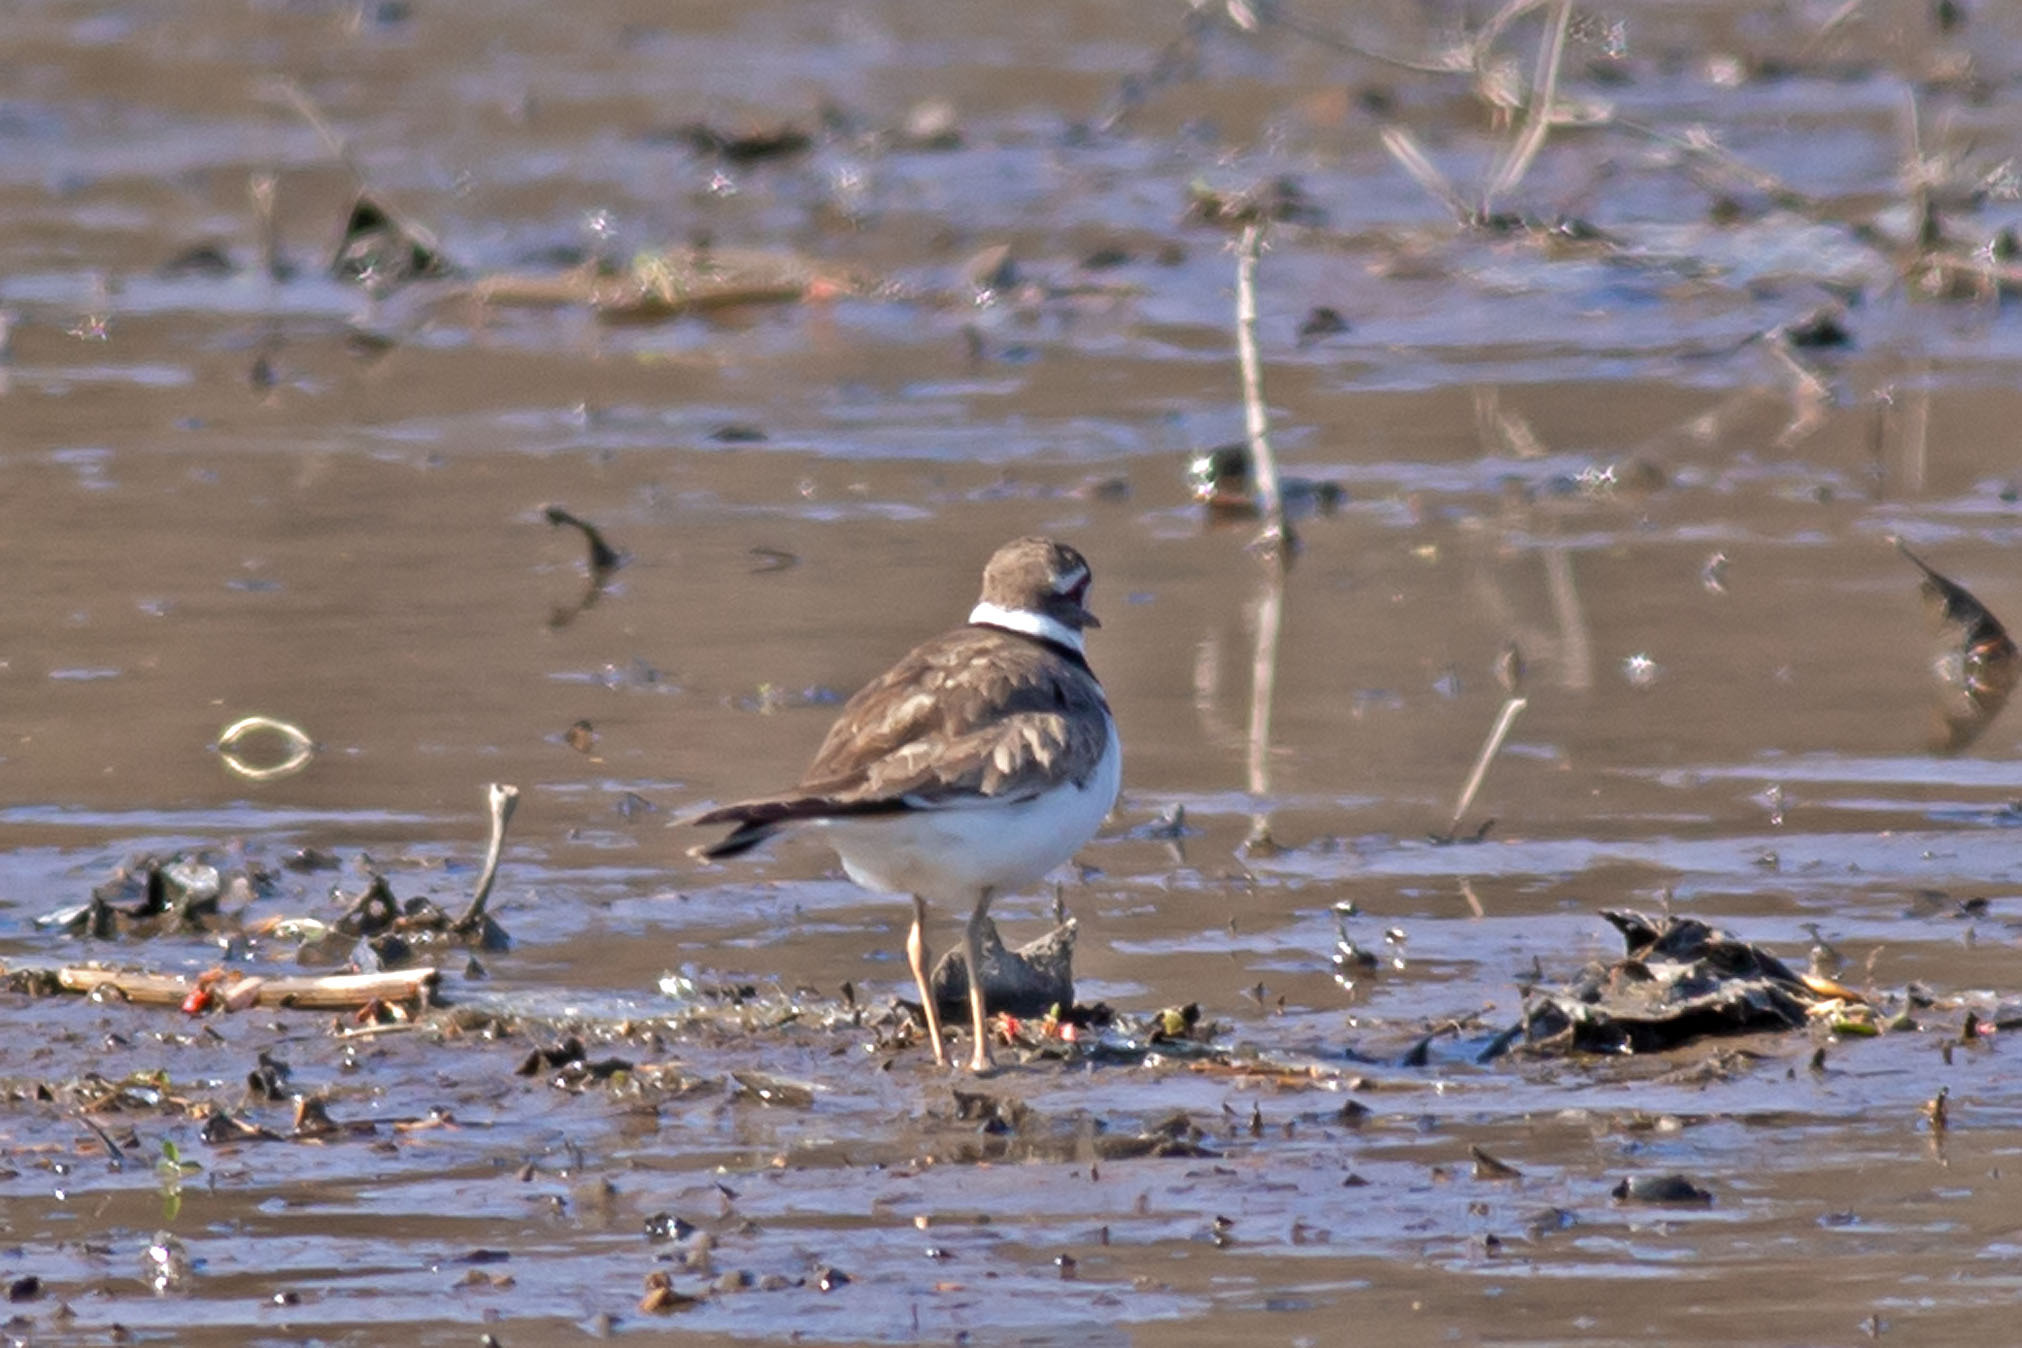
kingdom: Animalia
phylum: Chordata
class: Aves
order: Charadriiformes
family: Charadriidae
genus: Charadrius
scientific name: Charadrius vociferus
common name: Killdeer
